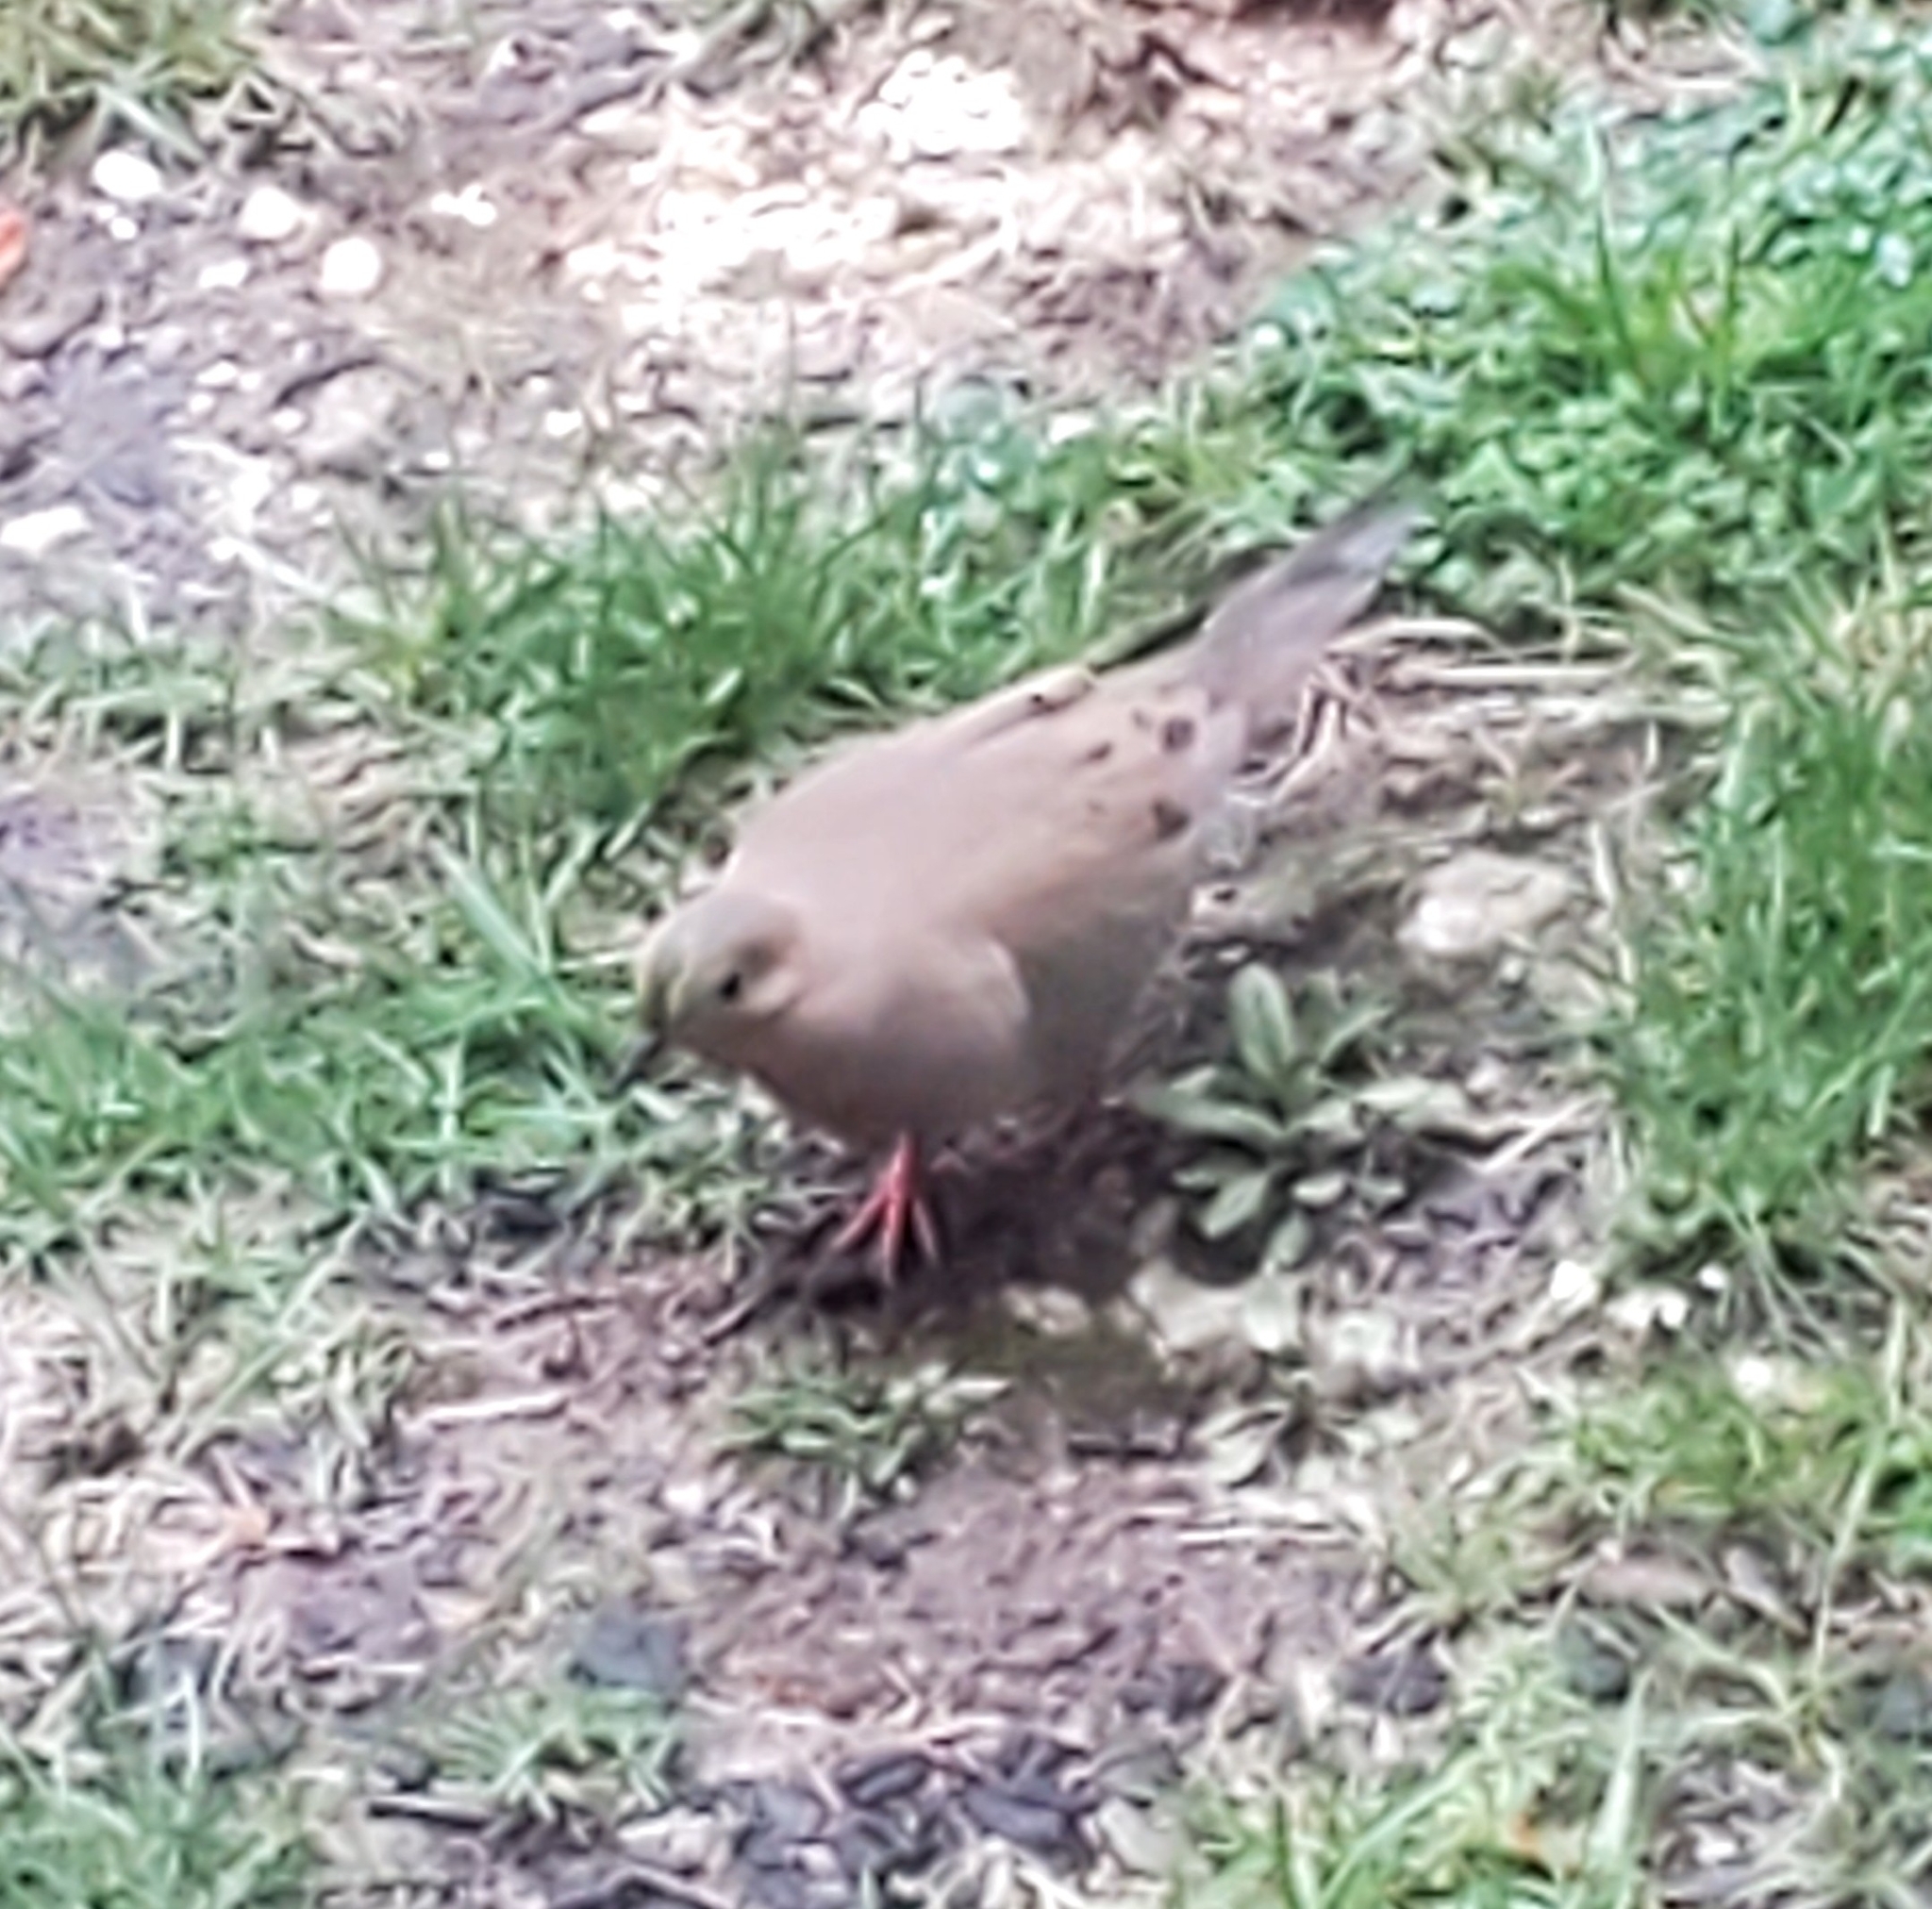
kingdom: Animalia
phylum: Chordata
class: Aves
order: Columbiformes
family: Columbidae
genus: Zenaida
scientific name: Zenaida macroura
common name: Mourning dove
